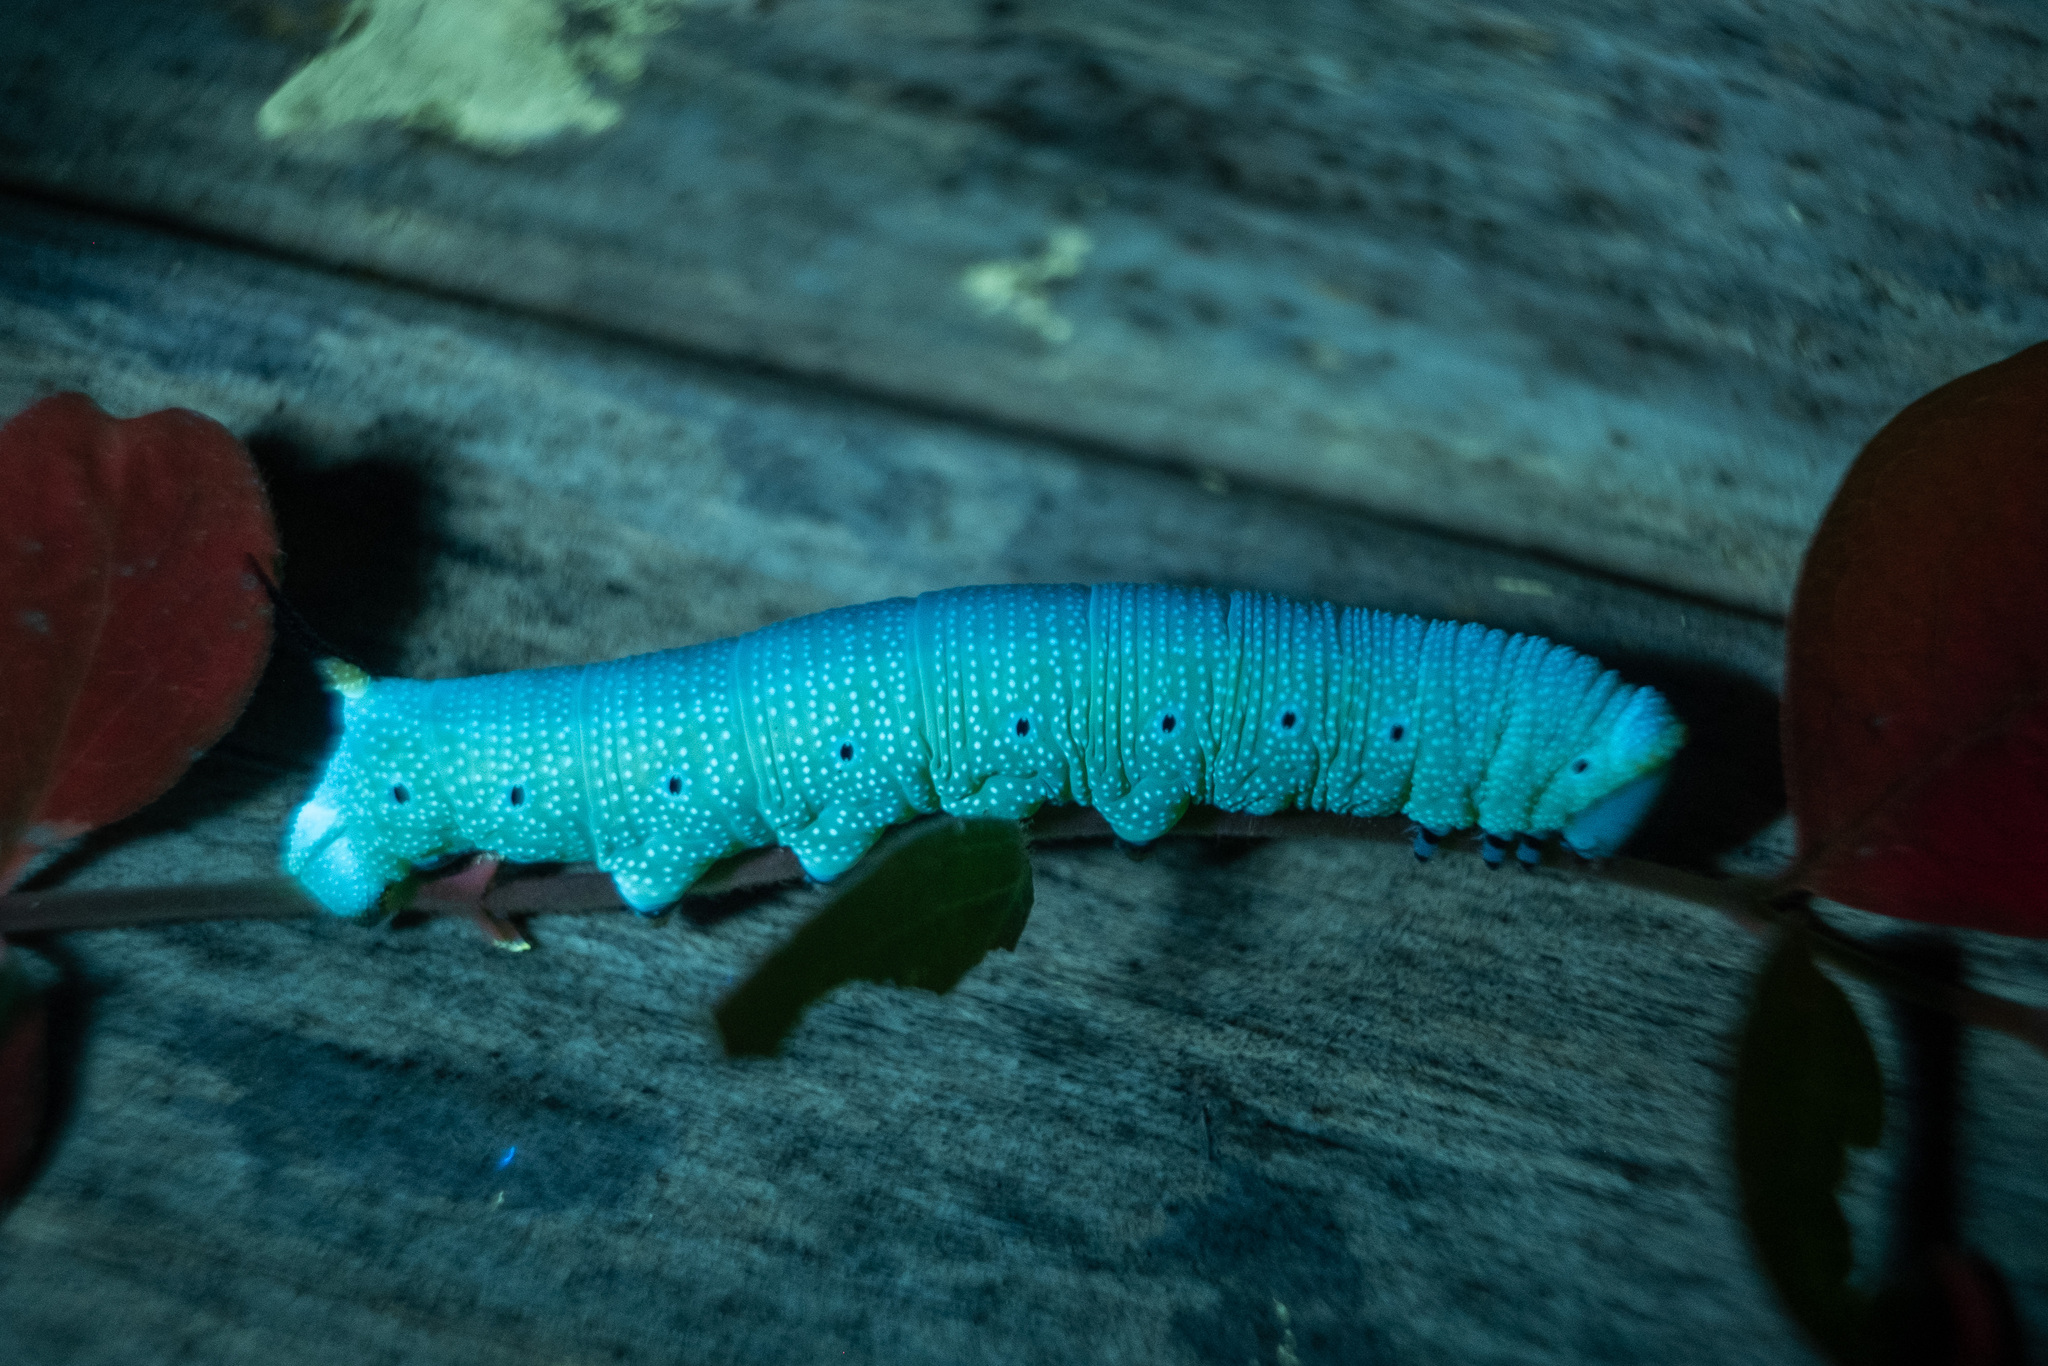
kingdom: Animalia
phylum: Arthropoda
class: Insecta
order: Lepidoptera
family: Sphingidae
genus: Hemaris
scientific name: Hemaris diffinis
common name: Bumblebee moth
